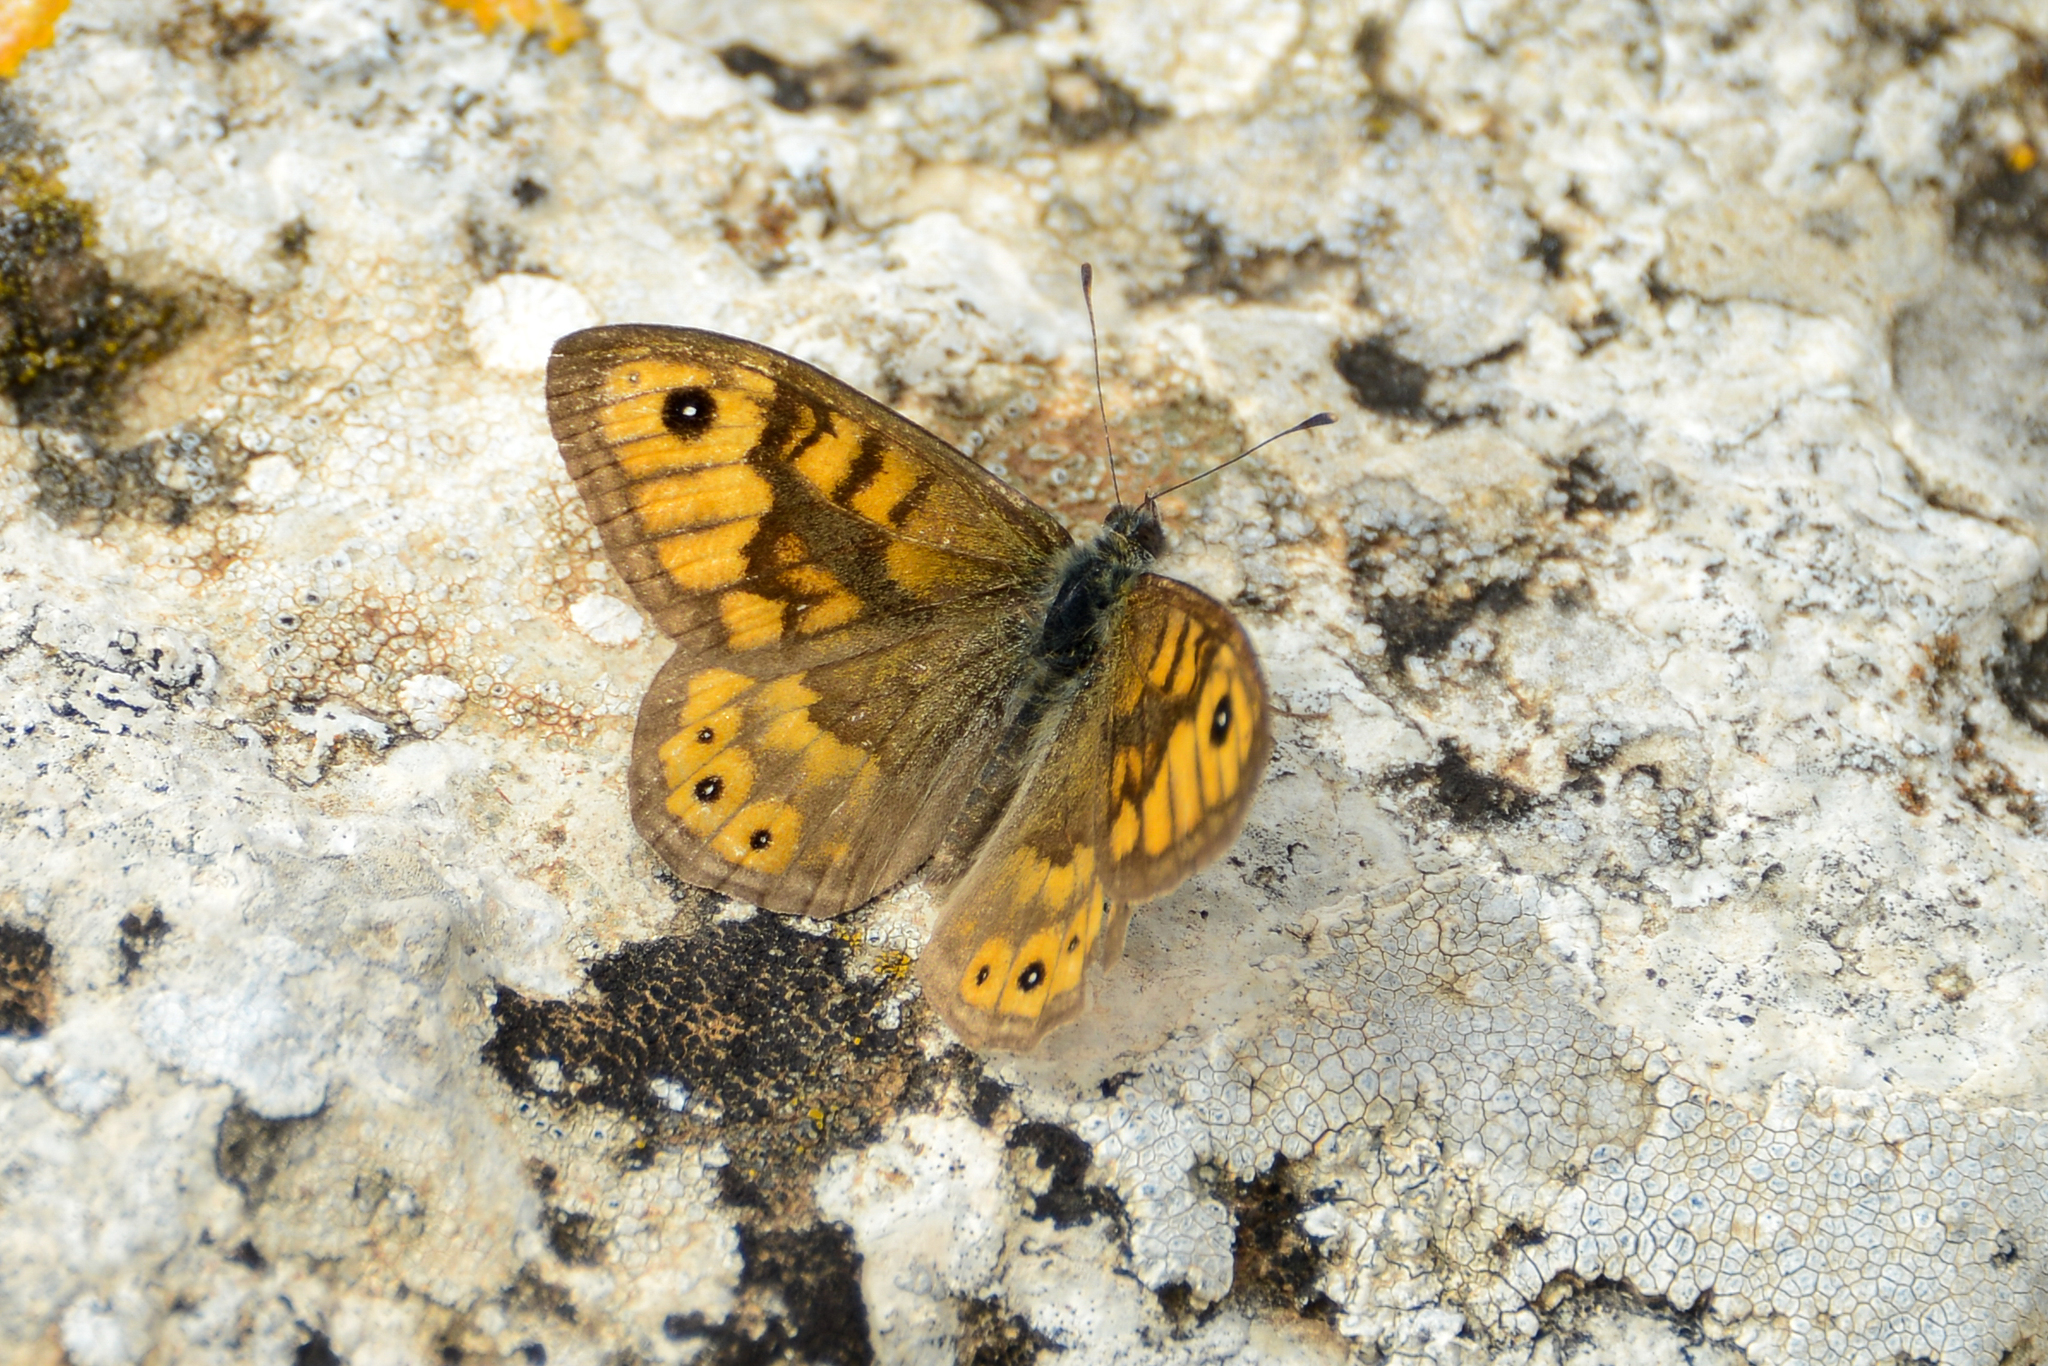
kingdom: Animalia
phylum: Arthropoda
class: Insecta
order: Lepidoptera
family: Nymphalidae
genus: Pararge
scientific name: Pararge Lasiommata megera
